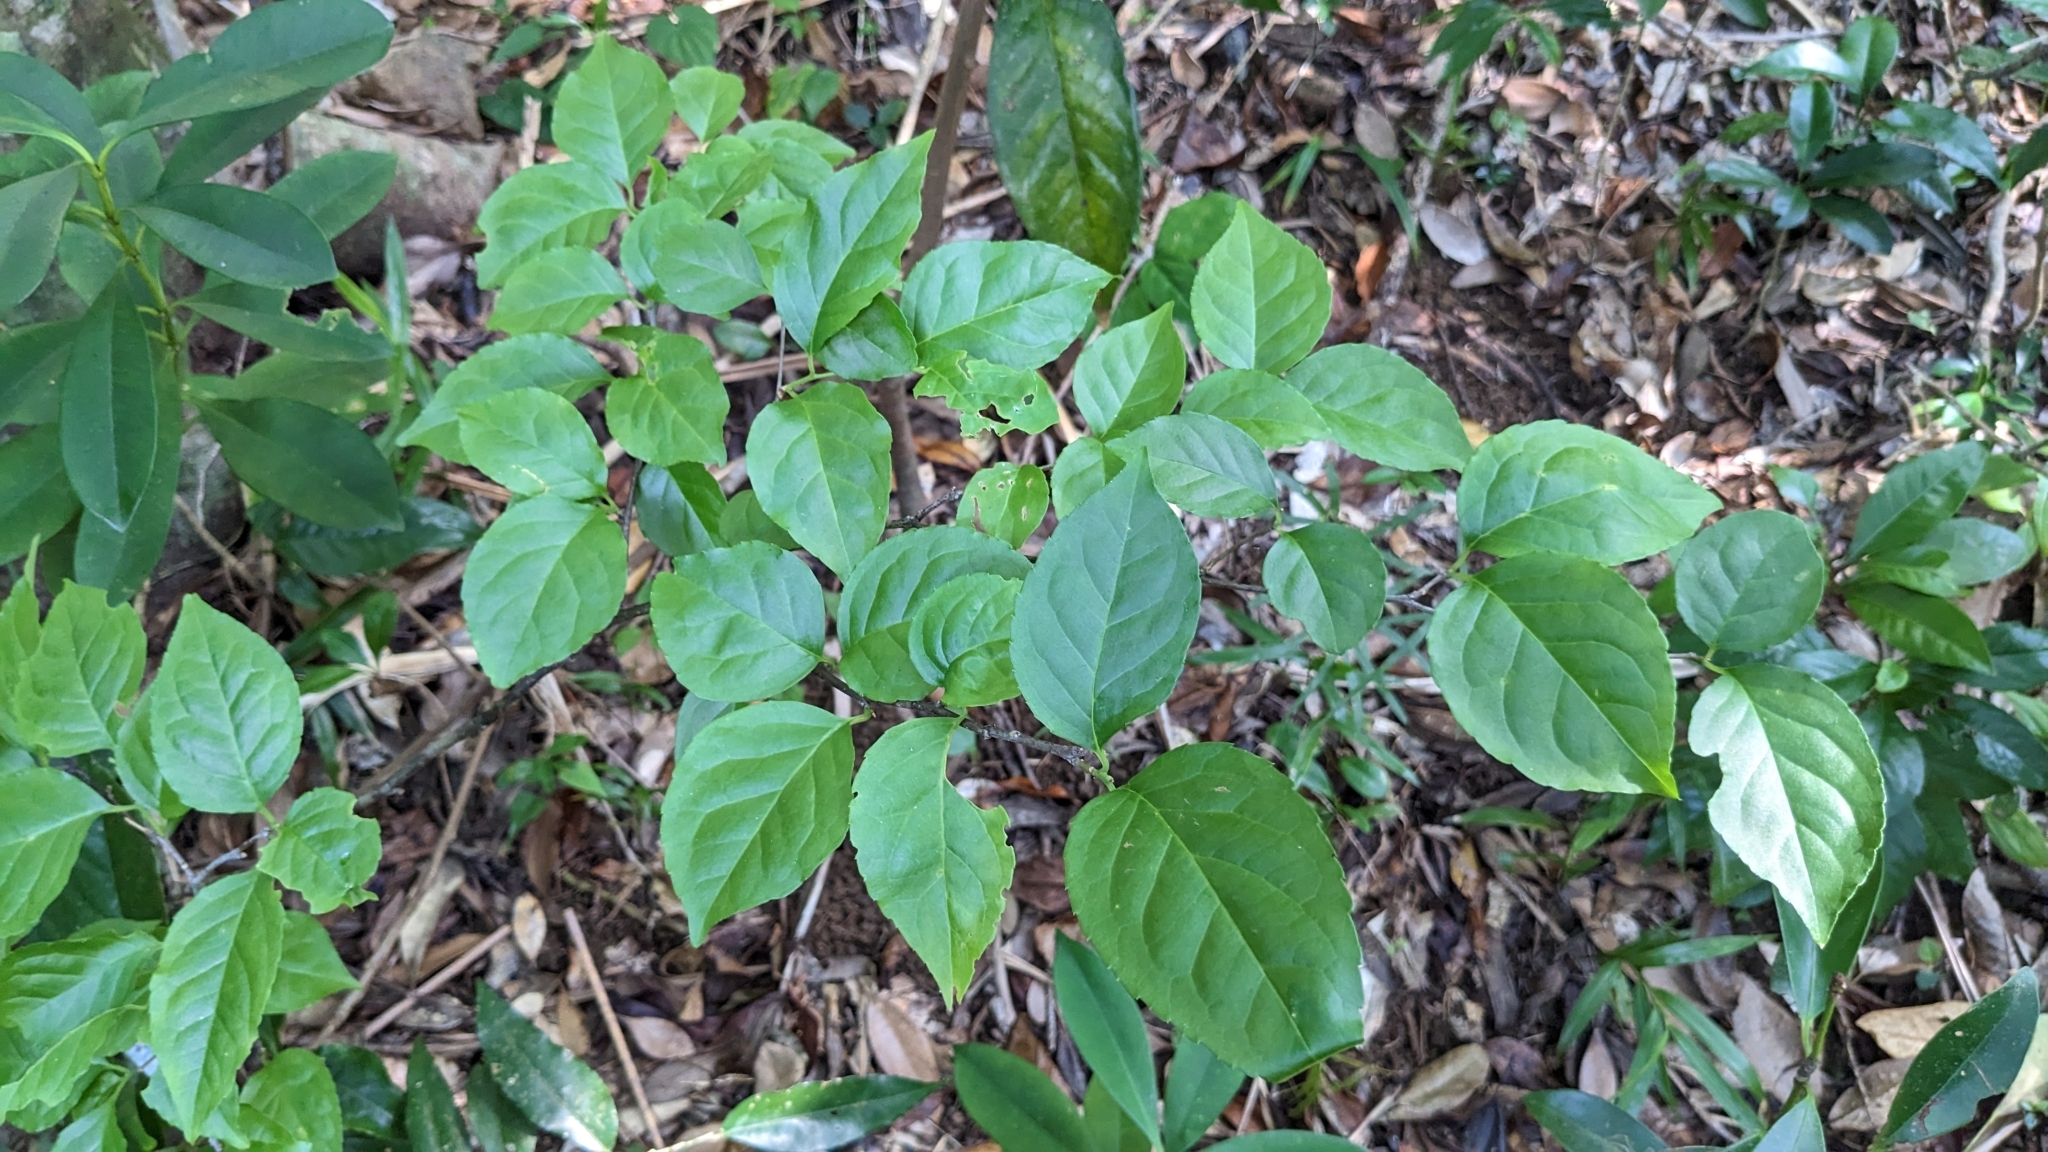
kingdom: Plantae
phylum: Tracheophyta
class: Magnoliopsida
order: Aquifoliales
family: Aquifoliaceae
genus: Ilex
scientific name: Ilex kusanoi
